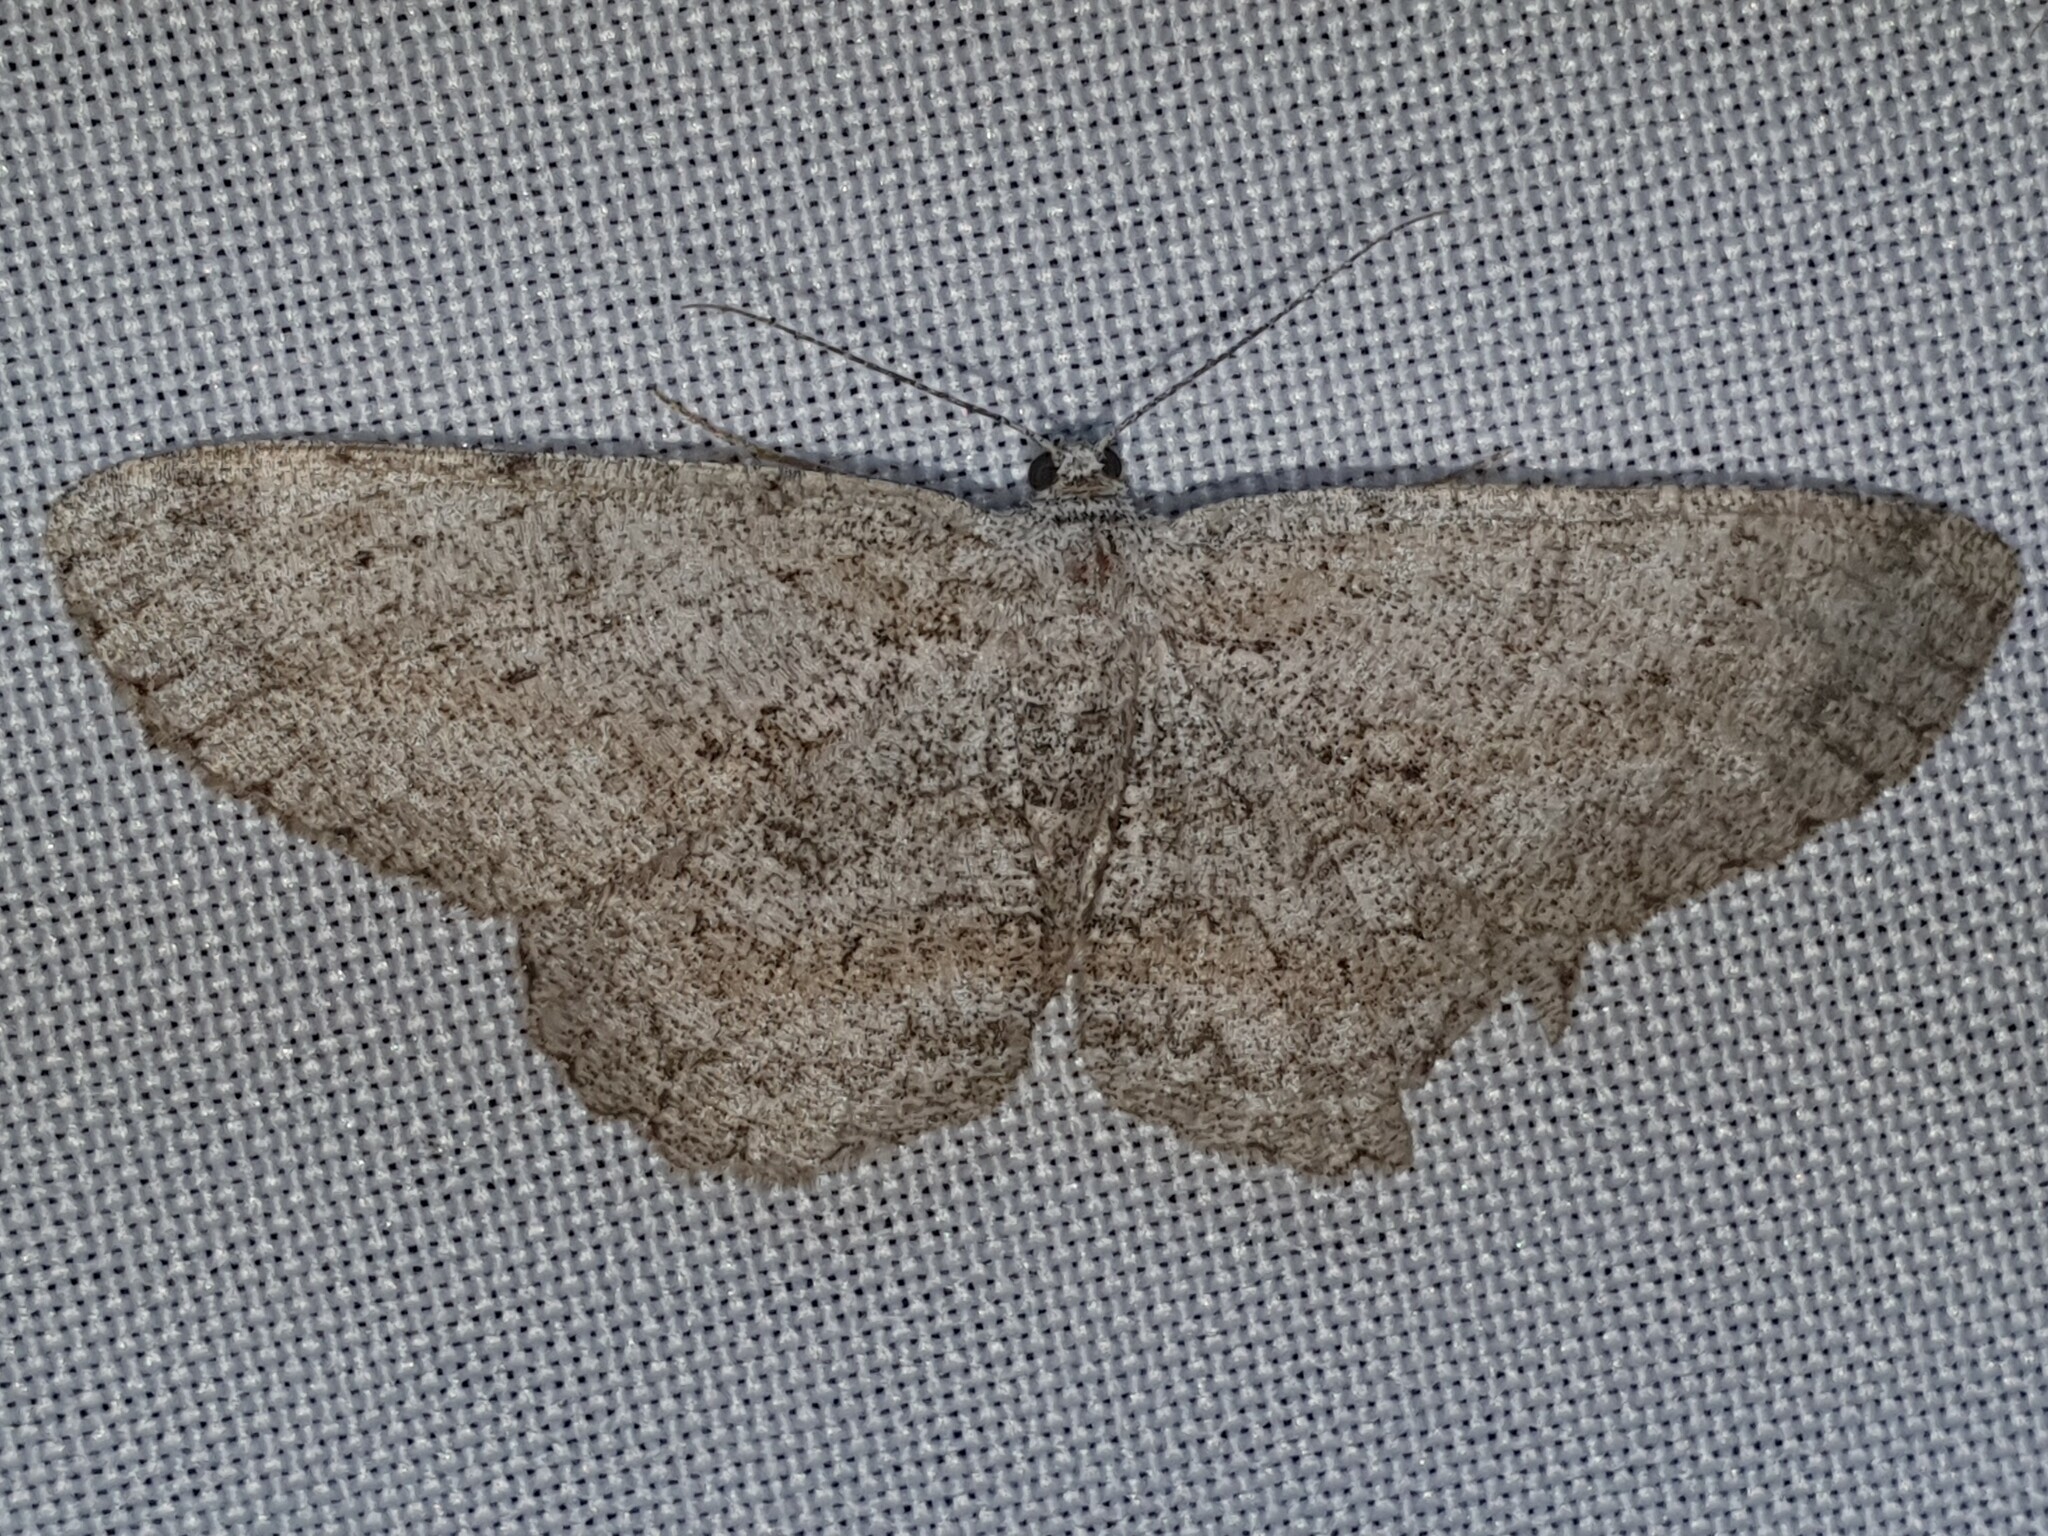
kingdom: Animalia
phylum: Arthropoda
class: Insecta
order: Lepidoptera
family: Geometridae
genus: Hypomecis
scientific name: Hypomecis punctinalis
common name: Pale oak beauty
